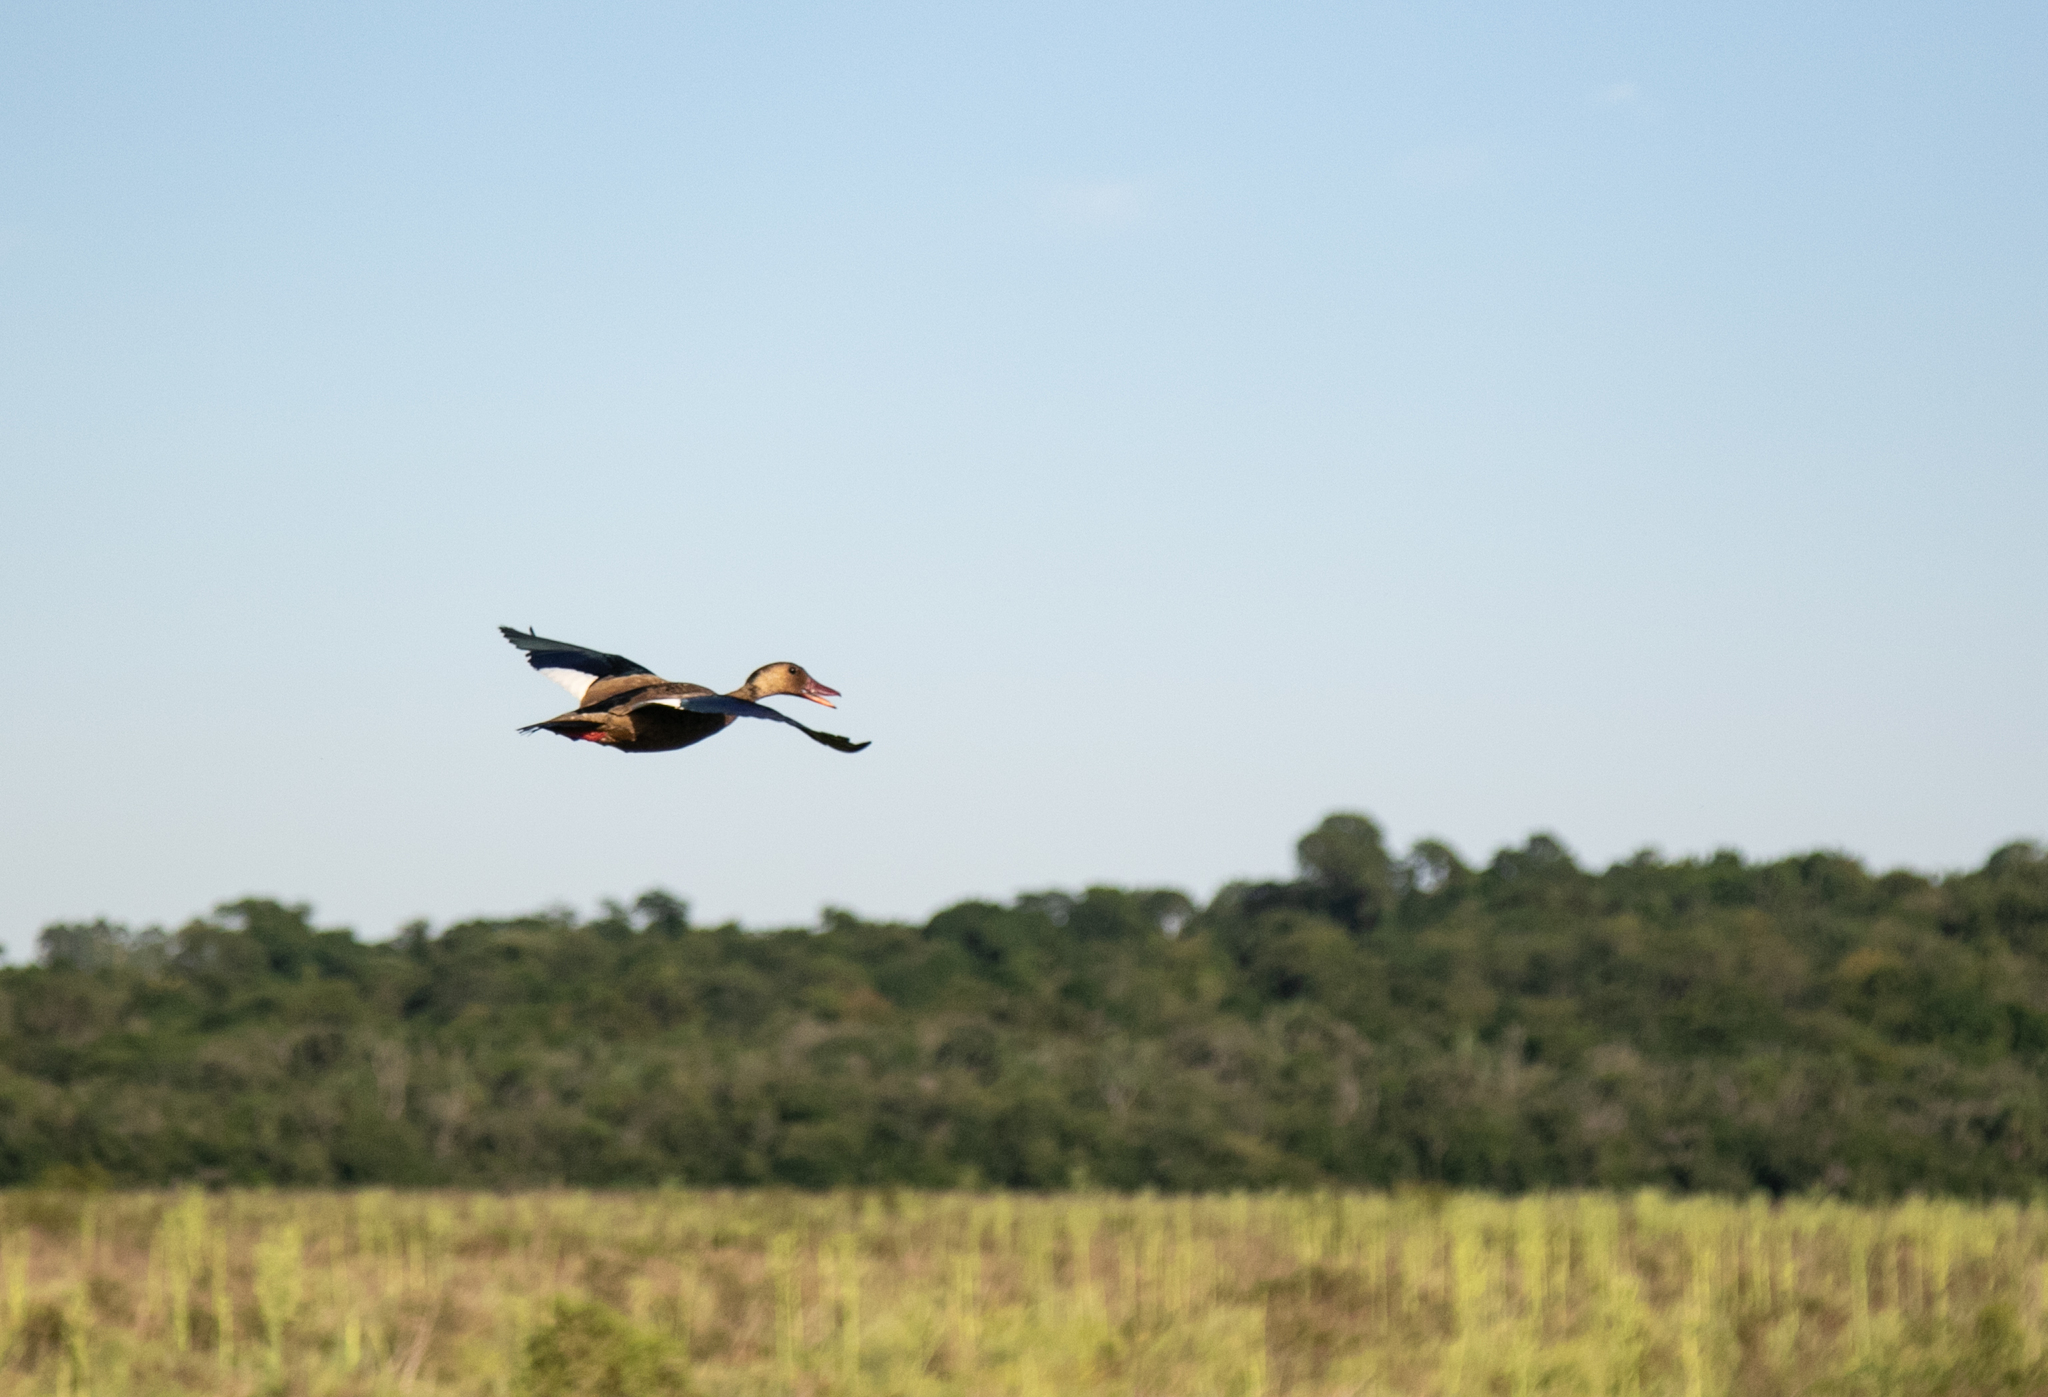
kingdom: Animalia
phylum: Chordata
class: Aves
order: Anseriformes
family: Anatidae
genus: Amazonetta
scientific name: Amazonetta brasiliensis
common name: Brazilian teal
